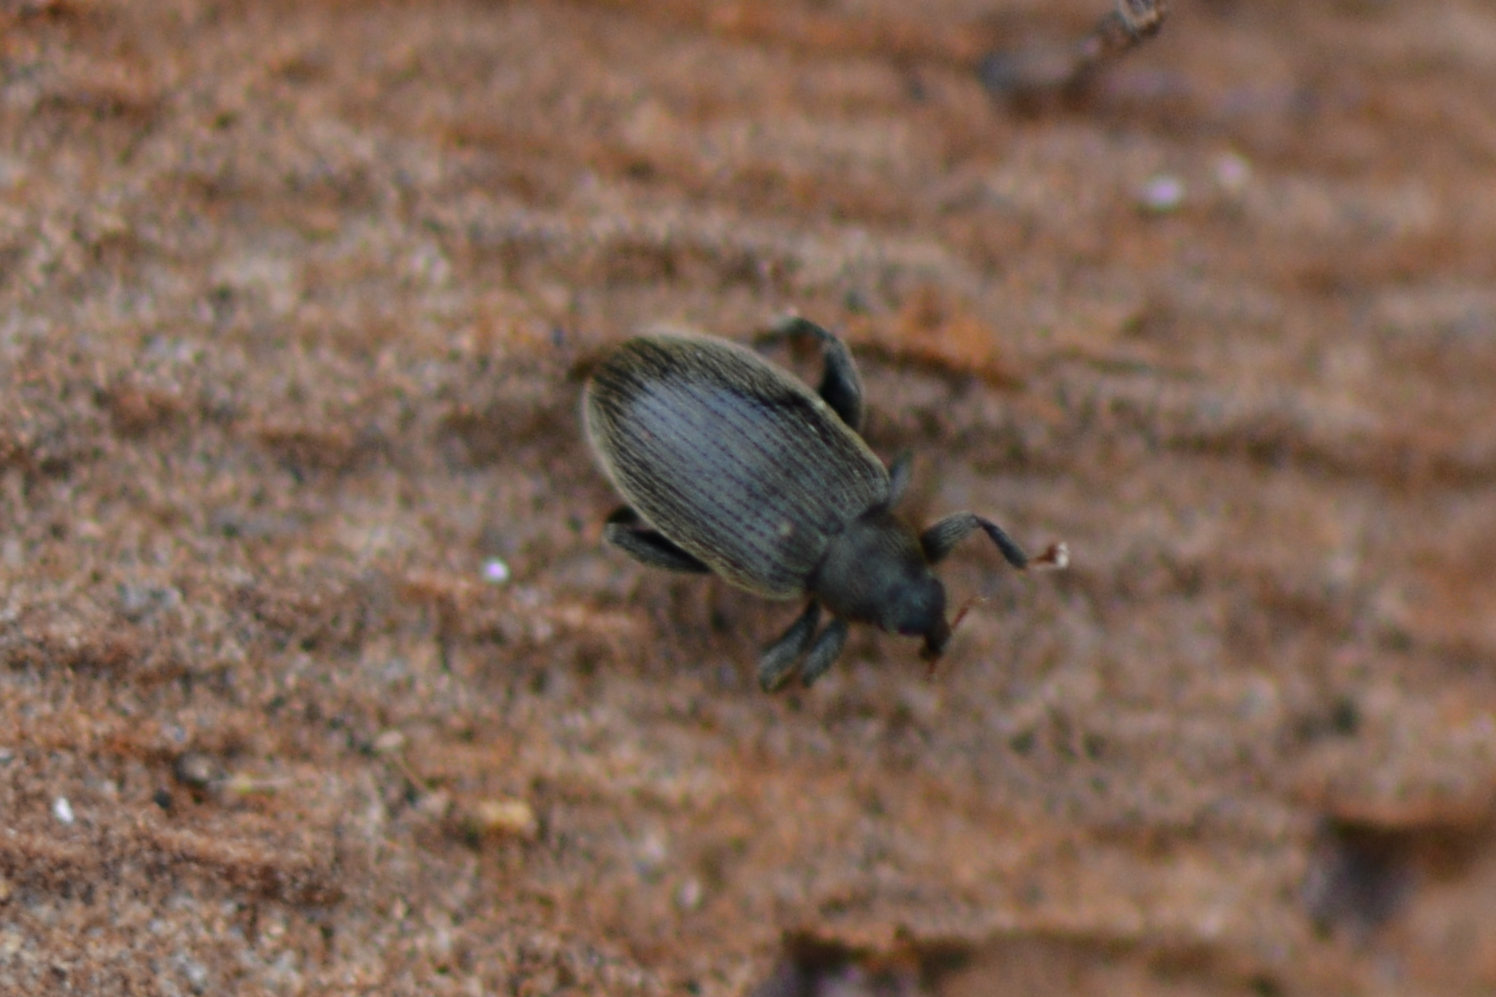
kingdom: Animalia
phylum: Arthropoda
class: Insecta
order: Coleoptera
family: Curculionidae
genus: Orchestes
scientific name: Orchestes fagi
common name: Beech leaf miner
